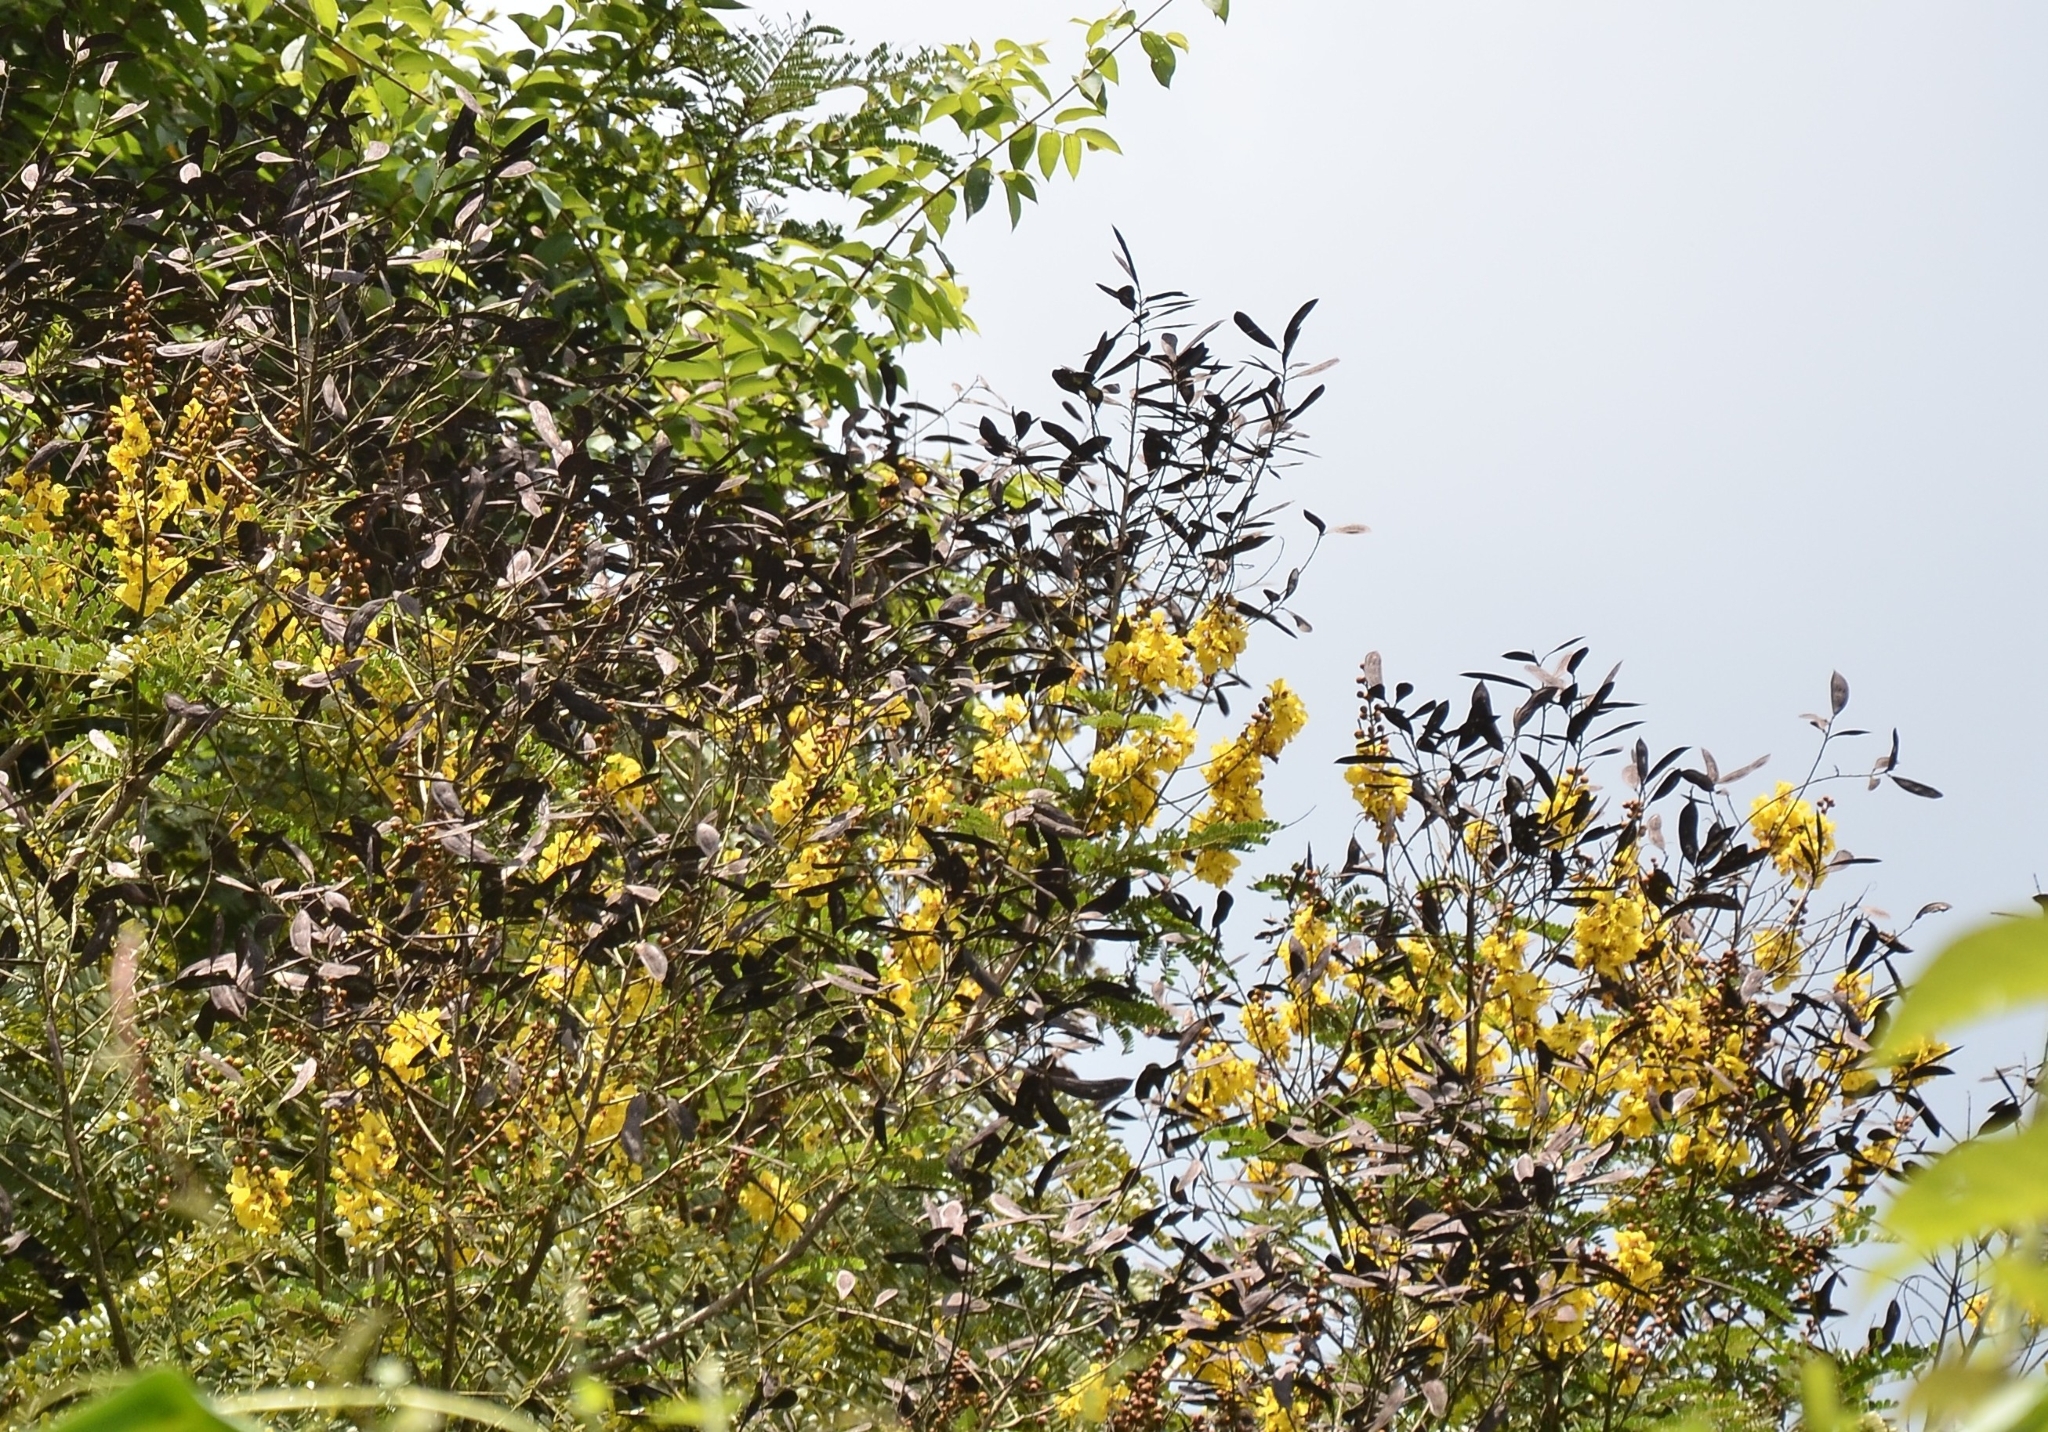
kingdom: Plantae
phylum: Tracheophyta
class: Magnoliopsida
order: Fabales
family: Fabaceae
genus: Peltophorum
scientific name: Peltophorum pterocarpum
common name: Yellow flame
